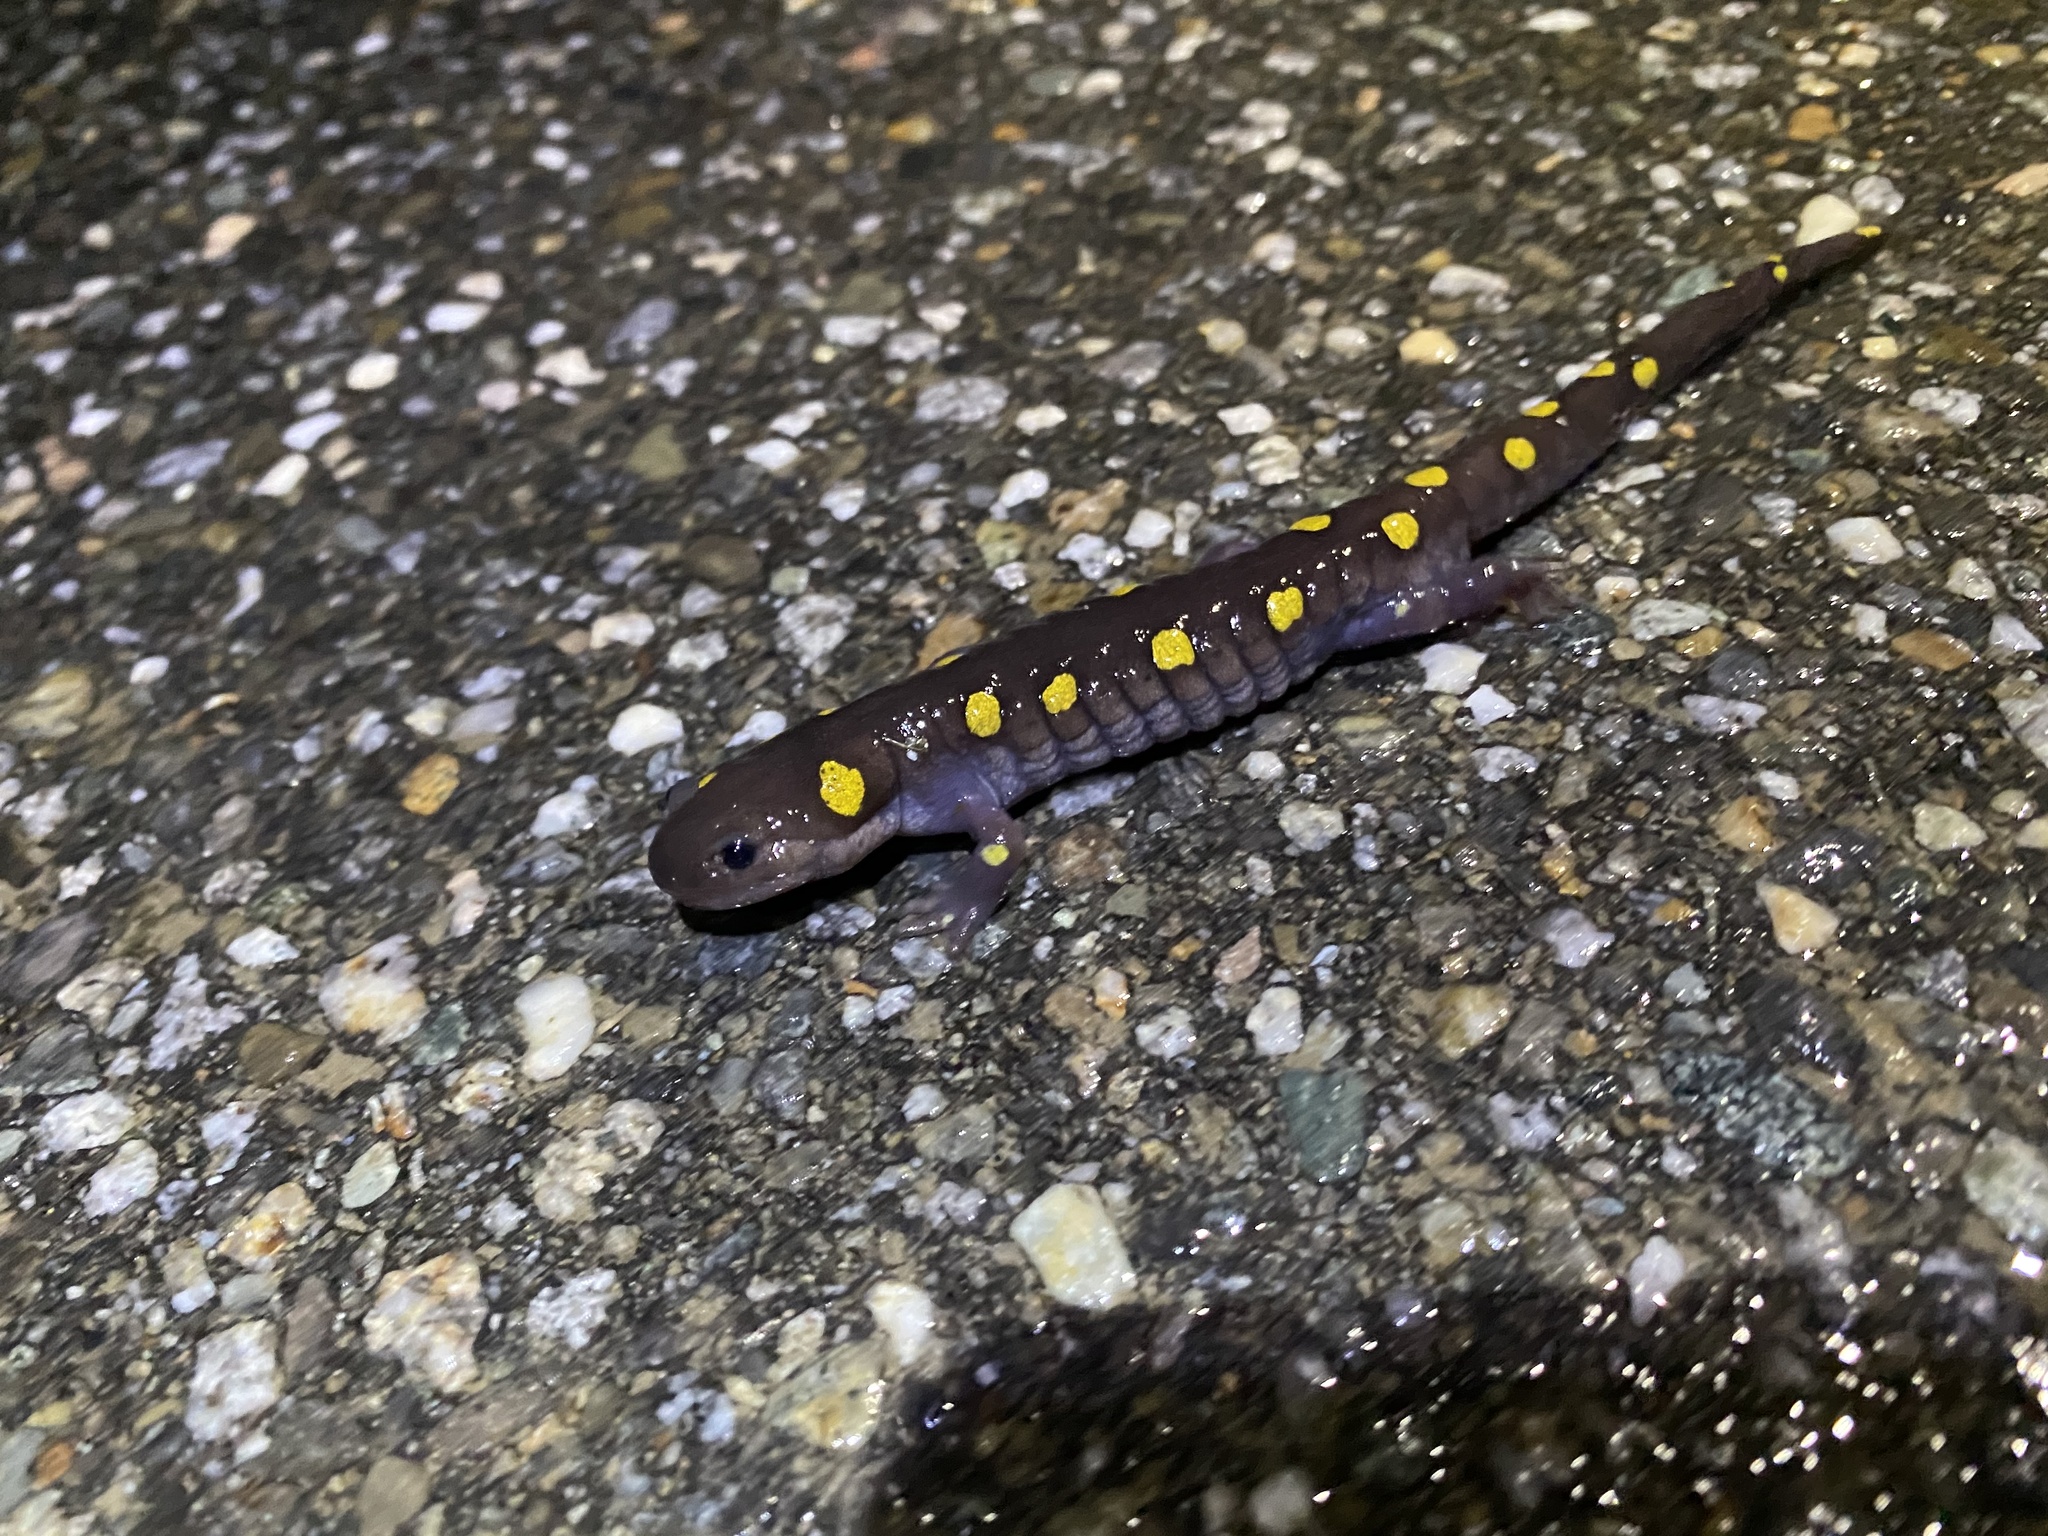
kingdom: Animalia
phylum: Chordata
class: Amphibia
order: Caudata
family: Ambystomatidae
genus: Ambystoma
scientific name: Ambystoma maculatum
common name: Spotted salamander
